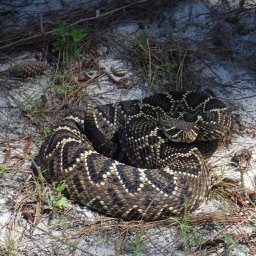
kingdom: Animalia
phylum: Chordata
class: Squamata
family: Viperidae
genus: Crotalus
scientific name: Crotalus adamanteus
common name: Eastern diamondback rattlesnake
